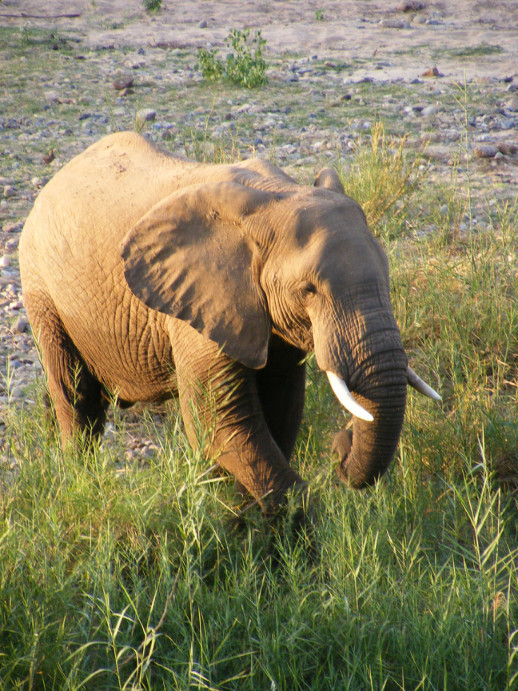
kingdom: Animalia
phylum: Chordata
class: Mammalia
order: Proboscidea
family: Elephantidae
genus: Loxodonta
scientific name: Loxodonta africana
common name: African elephant
